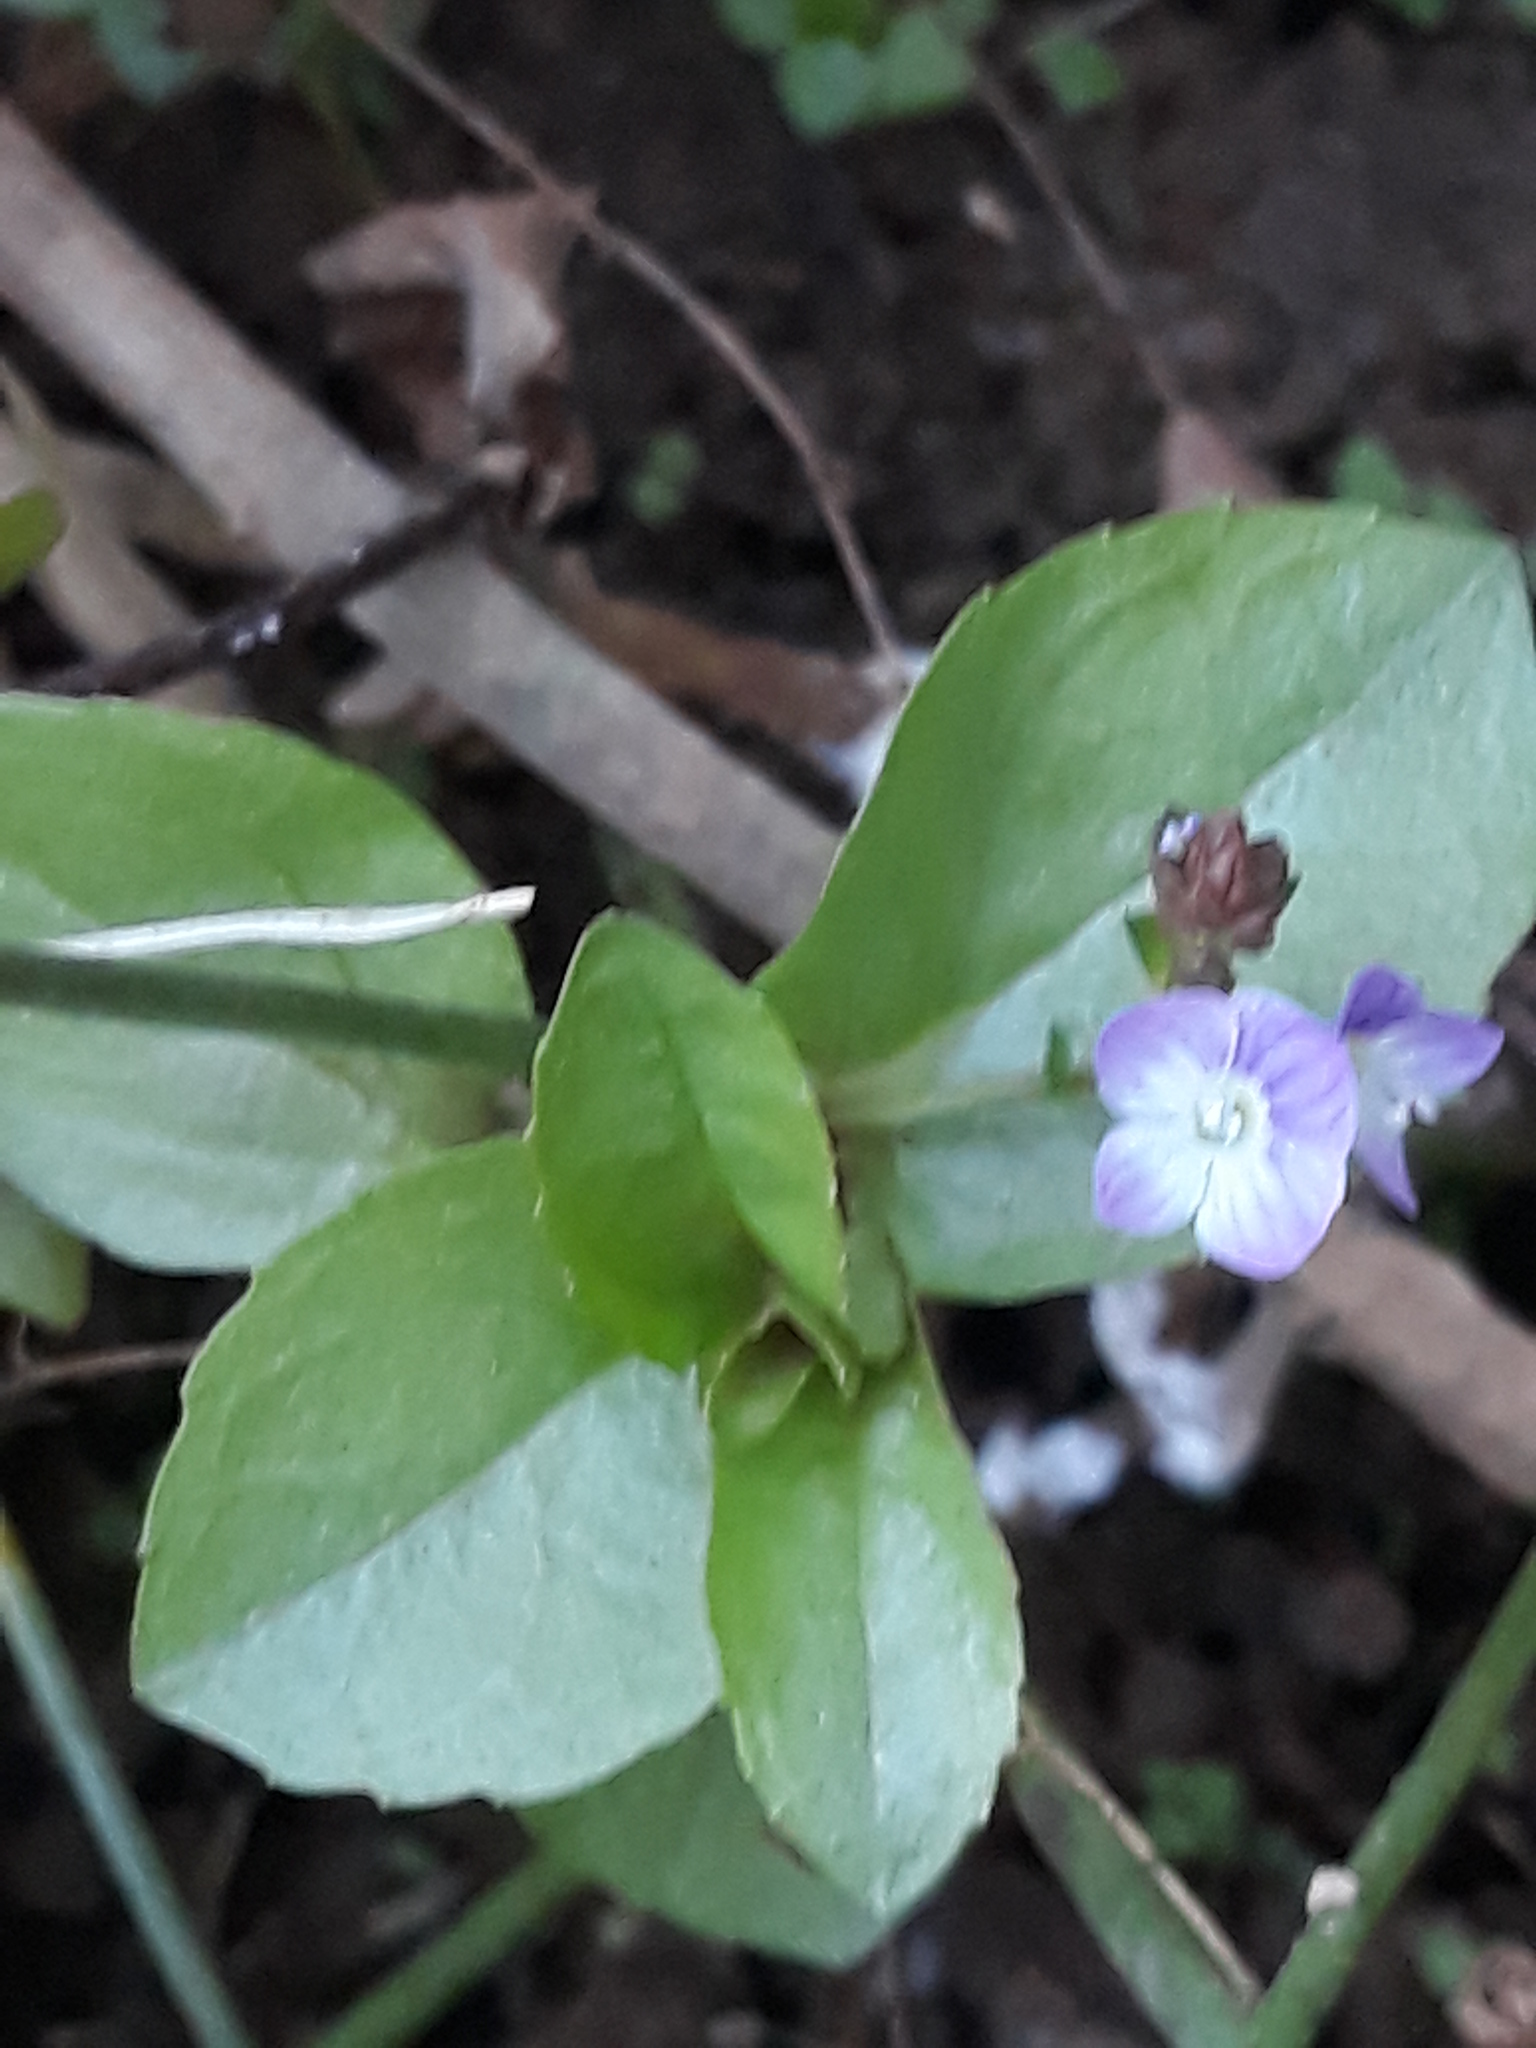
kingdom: Plantae
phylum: Tracheophyta
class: Magnoliopsida
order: Lamiales
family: Plantaginaceae
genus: Veronica
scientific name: Veronica anagallis-aquatica
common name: Water speedwell
